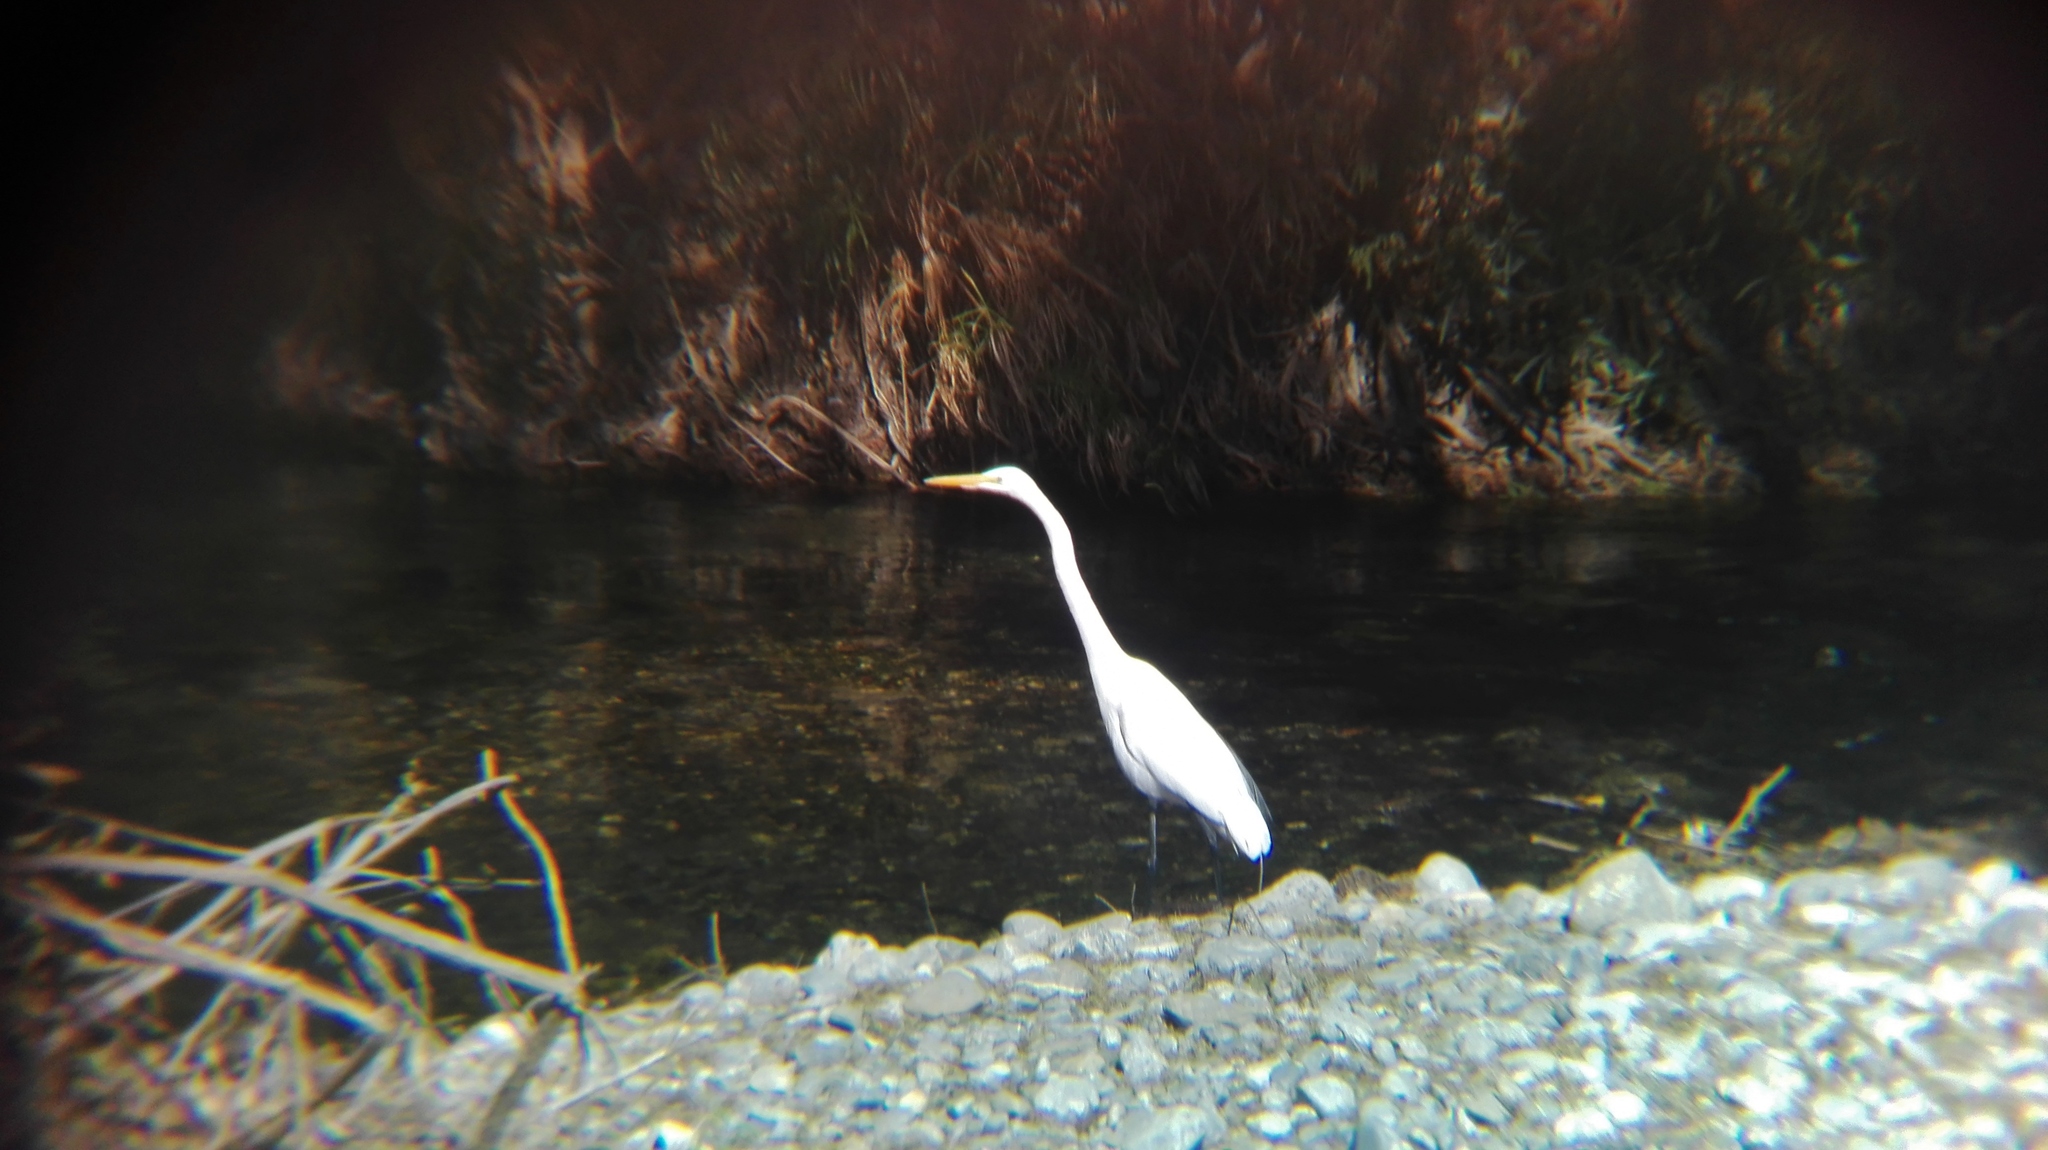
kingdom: Animalia
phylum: Chordata
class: Aves
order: Pelecaniformes
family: Ardeidae
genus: Ardea
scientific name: Ardea alba
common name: Great egret
